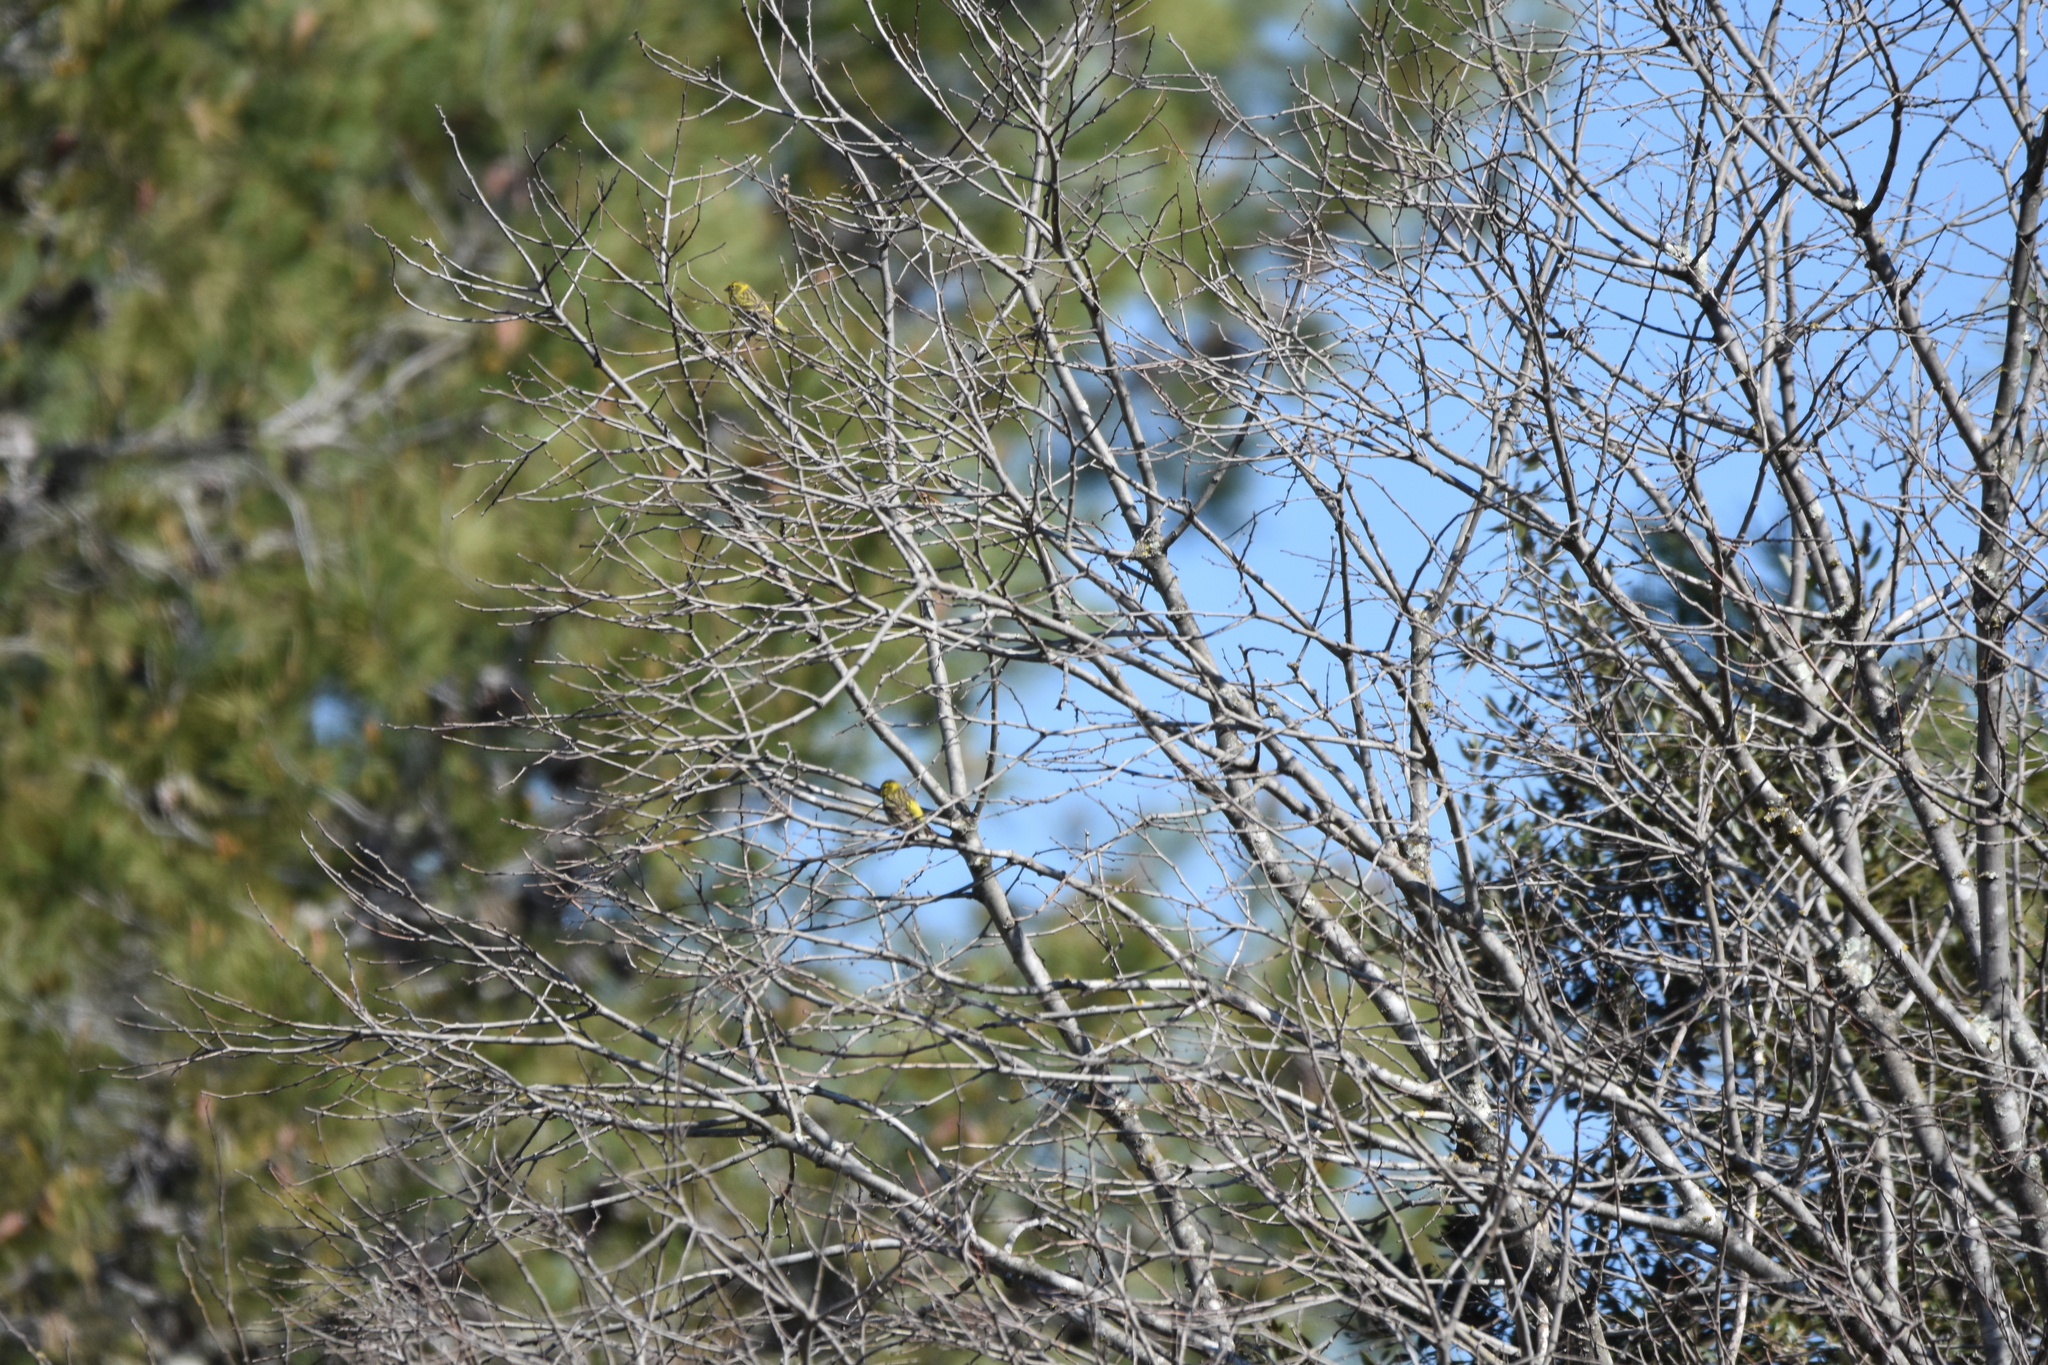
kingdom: Animalia
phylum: Chordata
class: Aves
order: Passeriformes
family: Fringillidae
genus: Serinus
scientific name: Serinus serinus
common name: European serin
